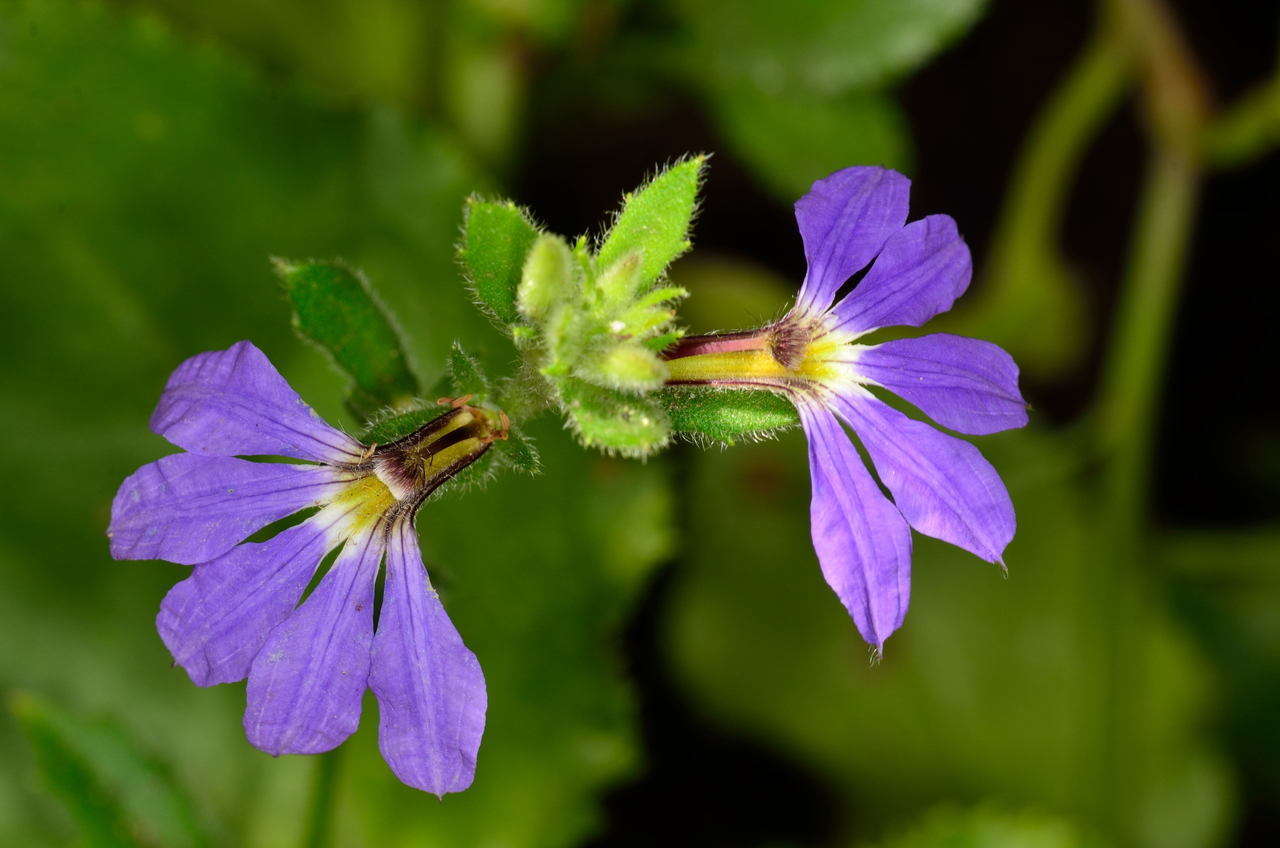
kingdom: Plantae
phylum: Tracheophyta
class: Magnoliopsida
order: Asterales
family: Goodeniaceae
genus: Scaevola
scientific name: Scaevola aemula
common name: Common fanflower
